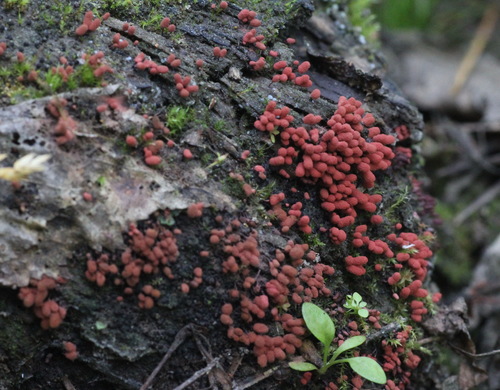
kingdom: Protozoa
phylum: Mycetozoa
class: Myxomycetes
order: Trichiales
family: Arcyriaceae
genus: Arcyria
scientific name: Arcyria stipata
